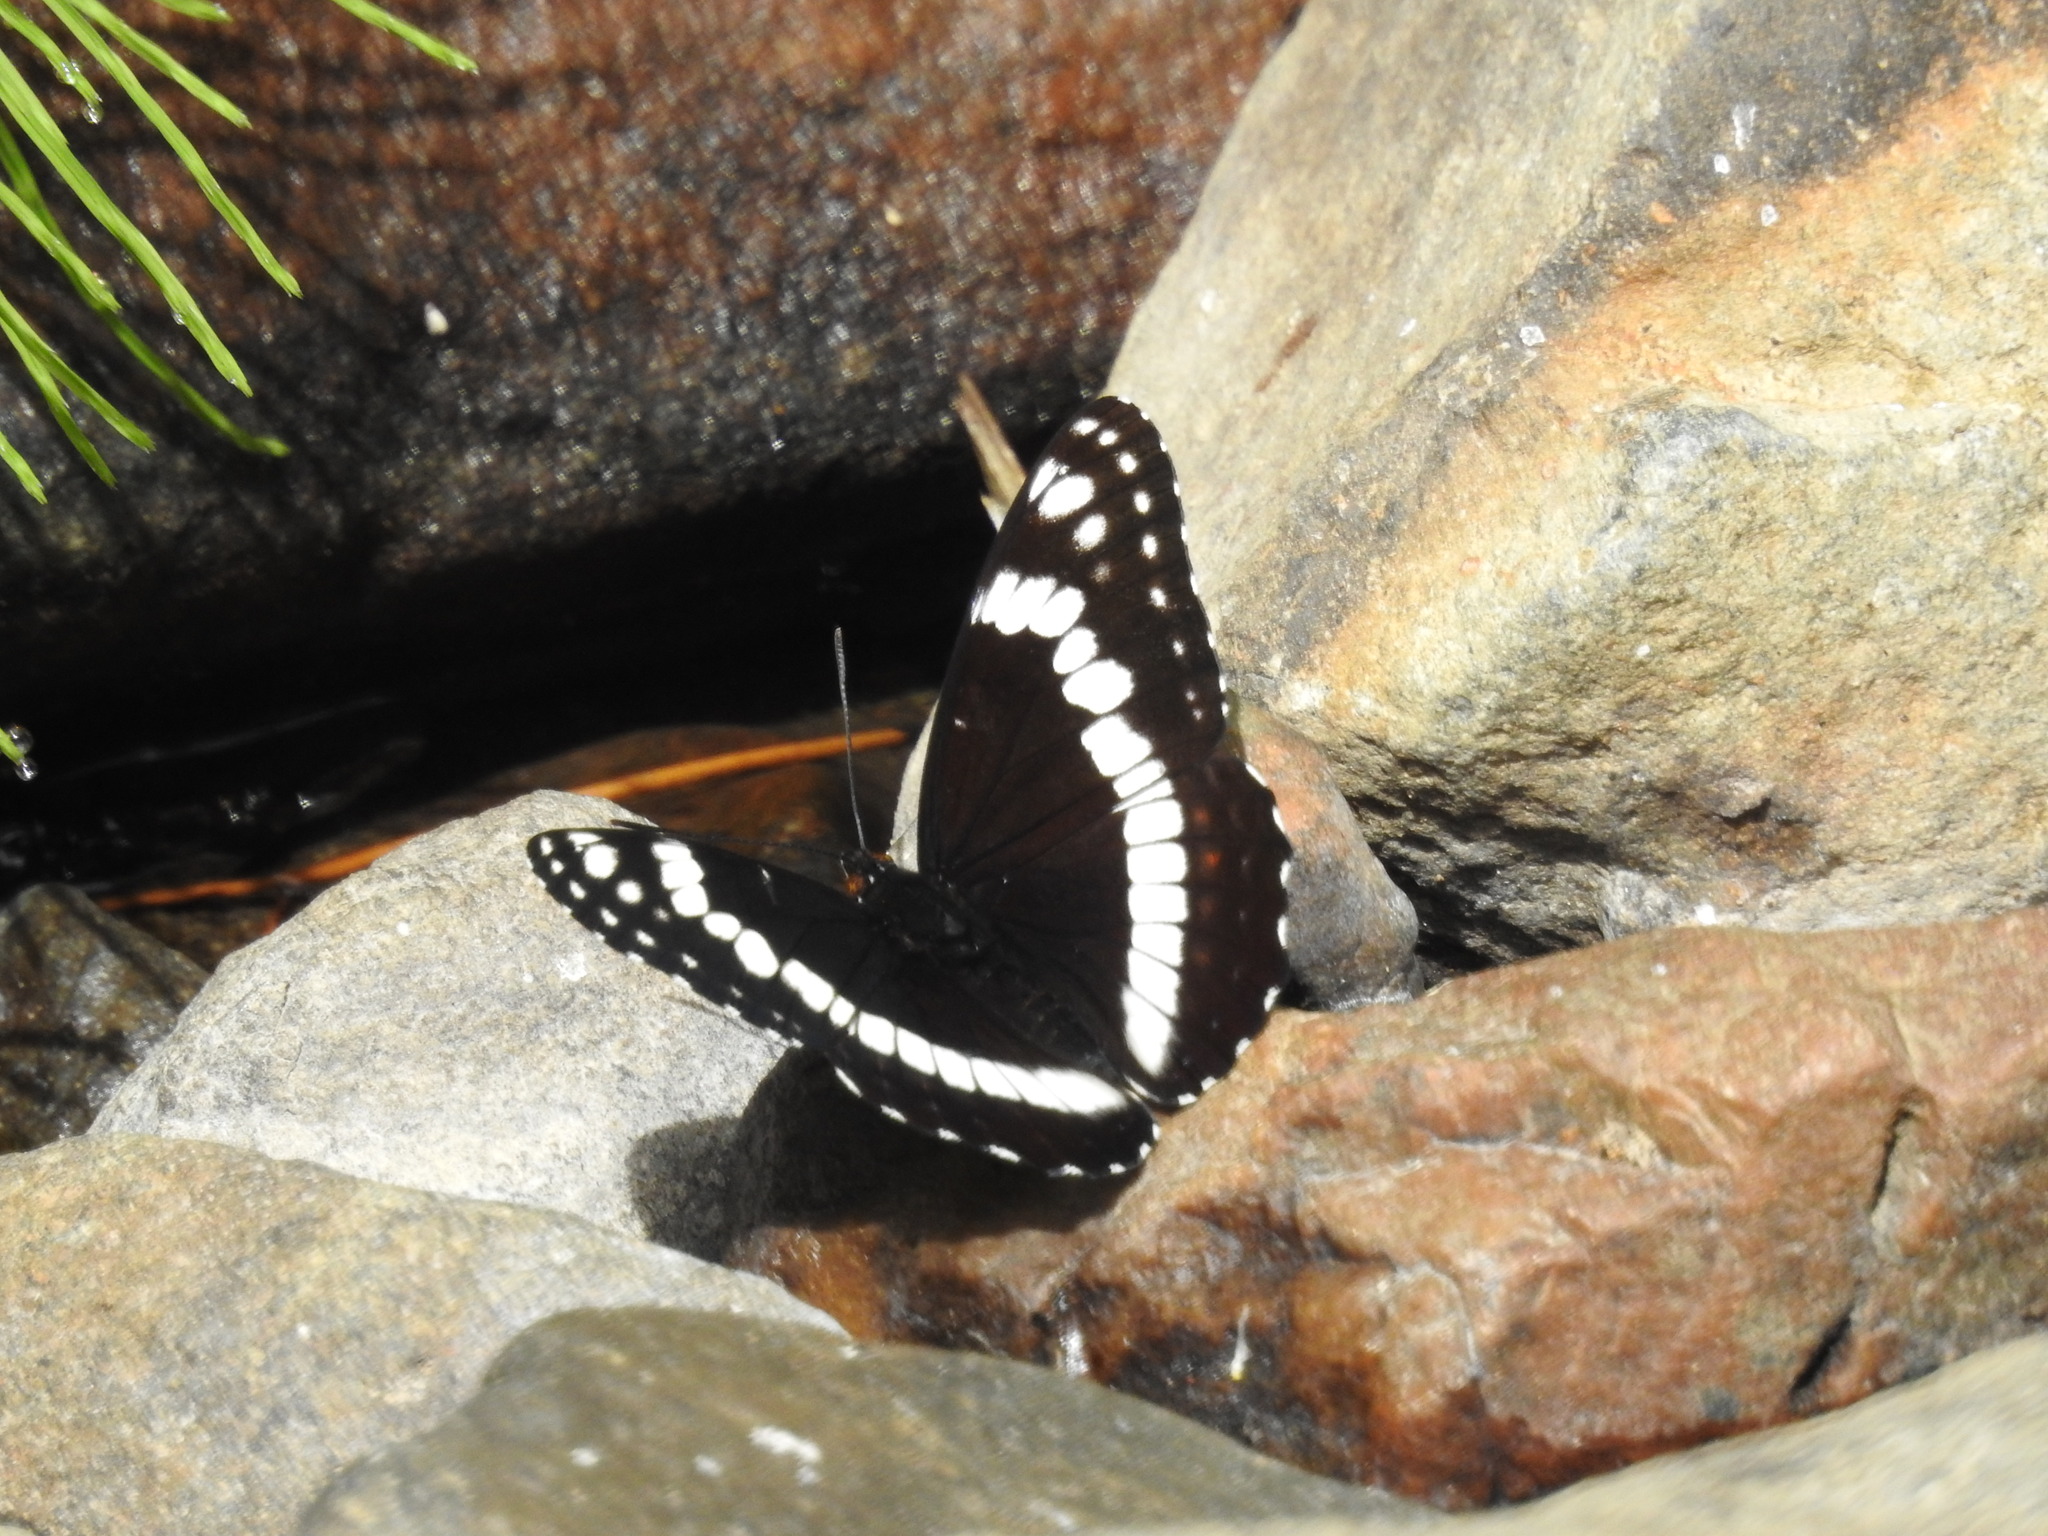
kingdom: Animalia
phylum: Arthropoda
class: Insecta
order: Lepidoptera
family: Nymphalidae
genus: Limenitis
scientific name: Limenitis weidemeyerii
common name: Weidemeyer's admiral
